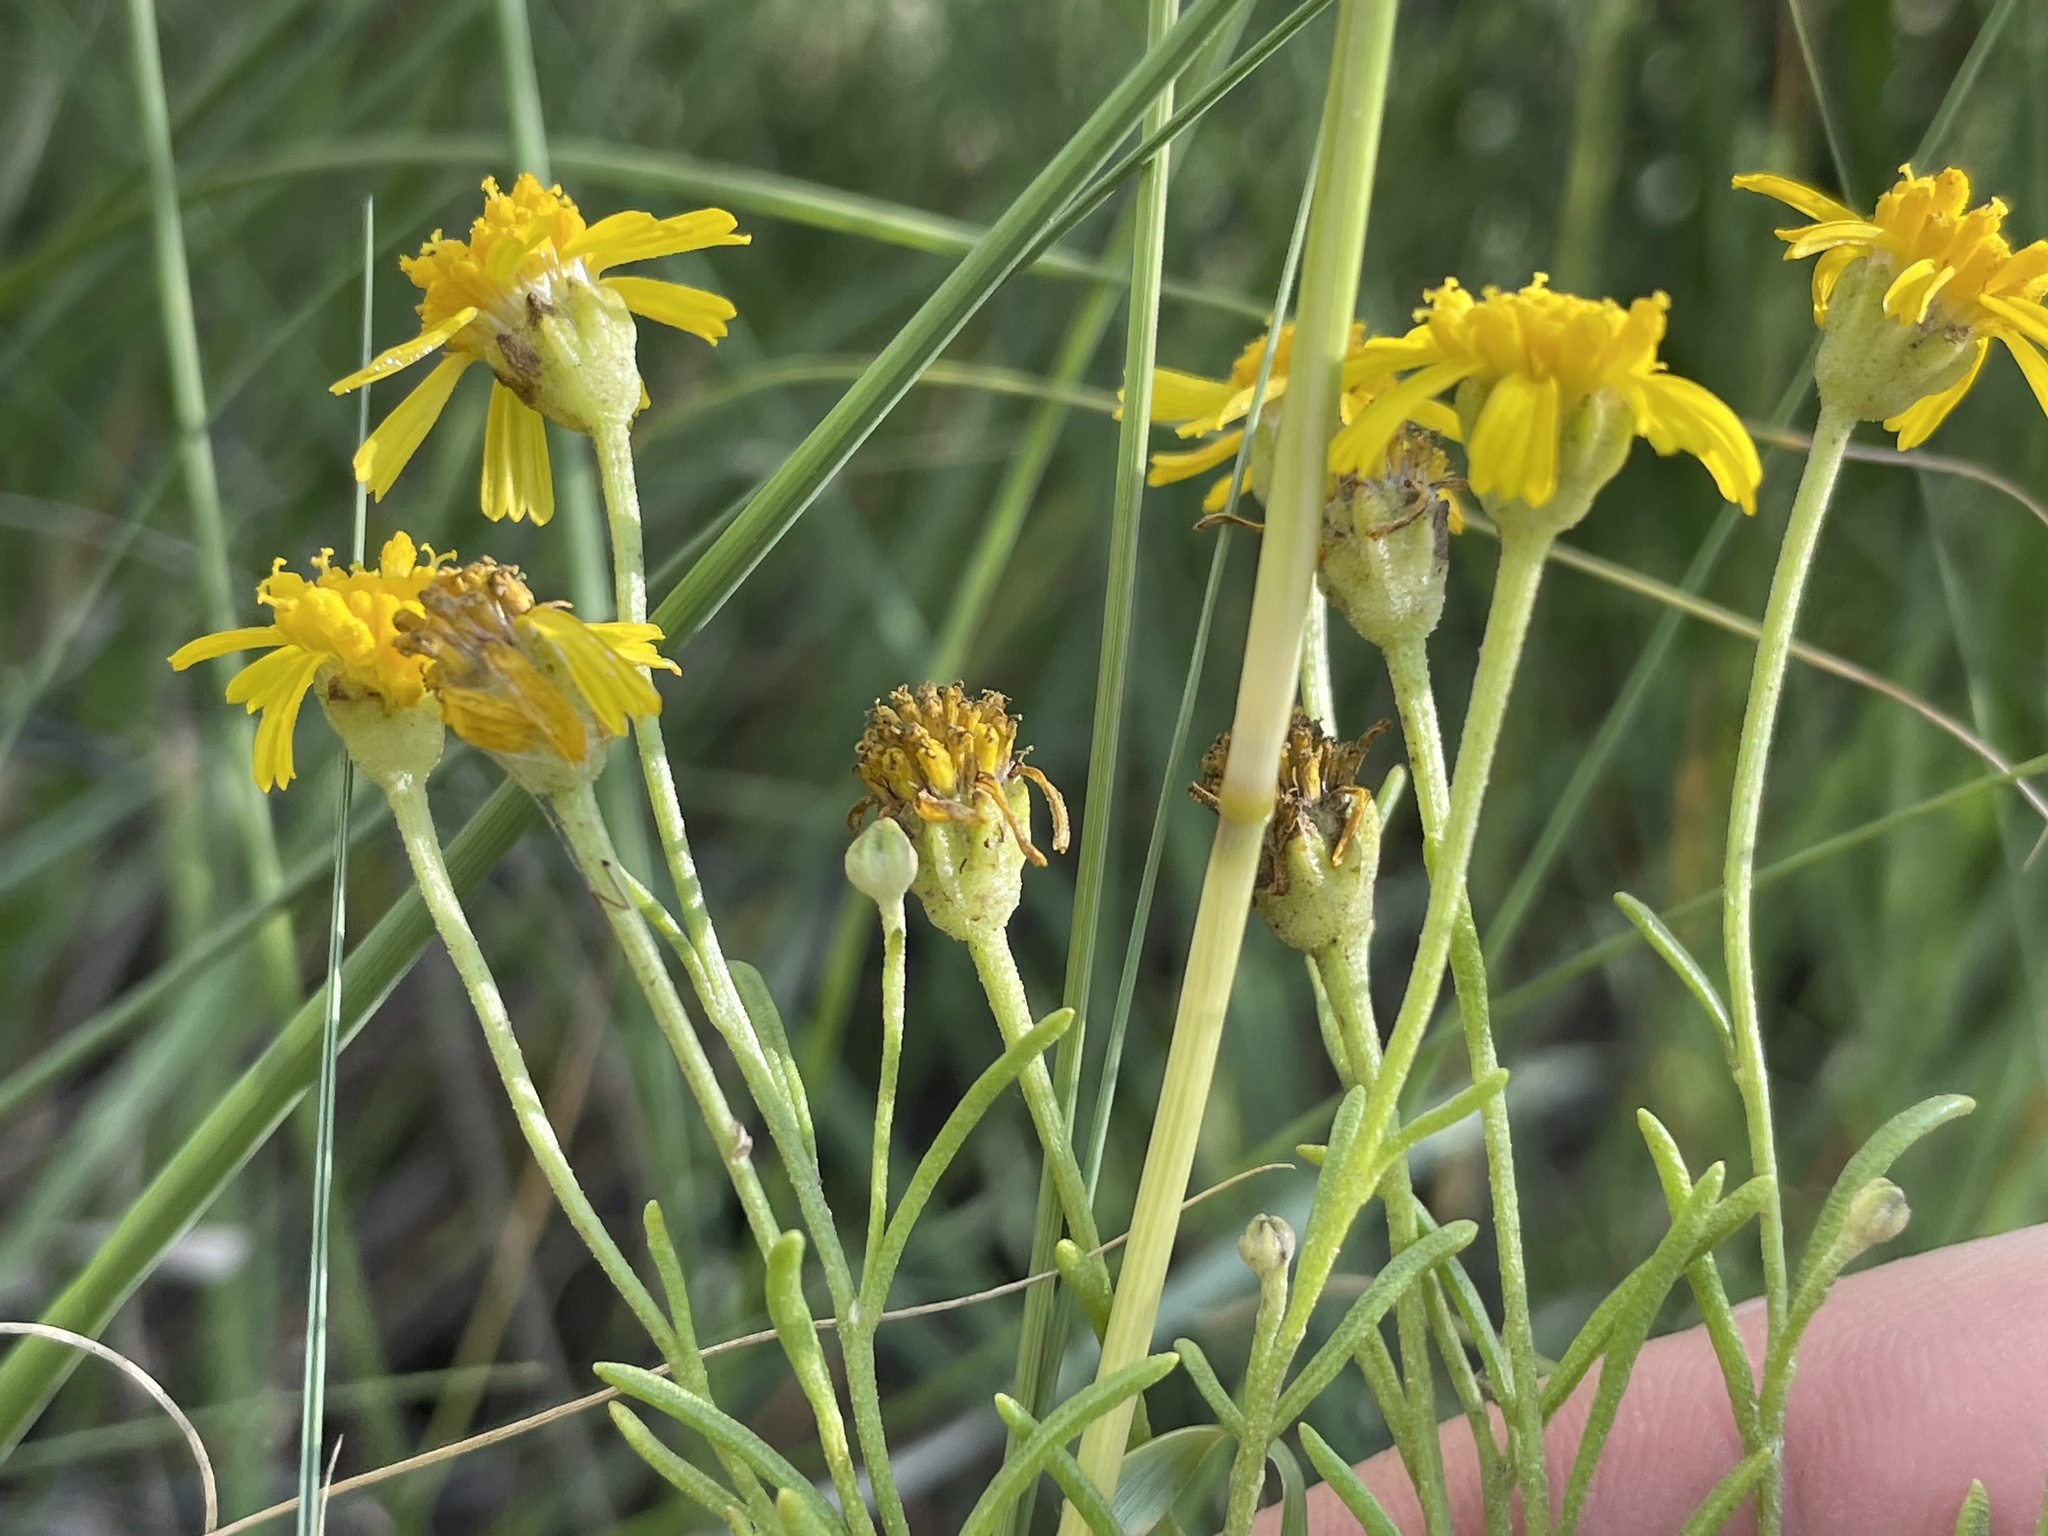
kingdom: Plantae
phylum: Tracheophyta
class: Magnoliopsida
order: Asterales
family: Asteraceae
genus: Hymenoxys
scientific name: Hymenoxys richardsonii
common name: Pingue rubberweed
